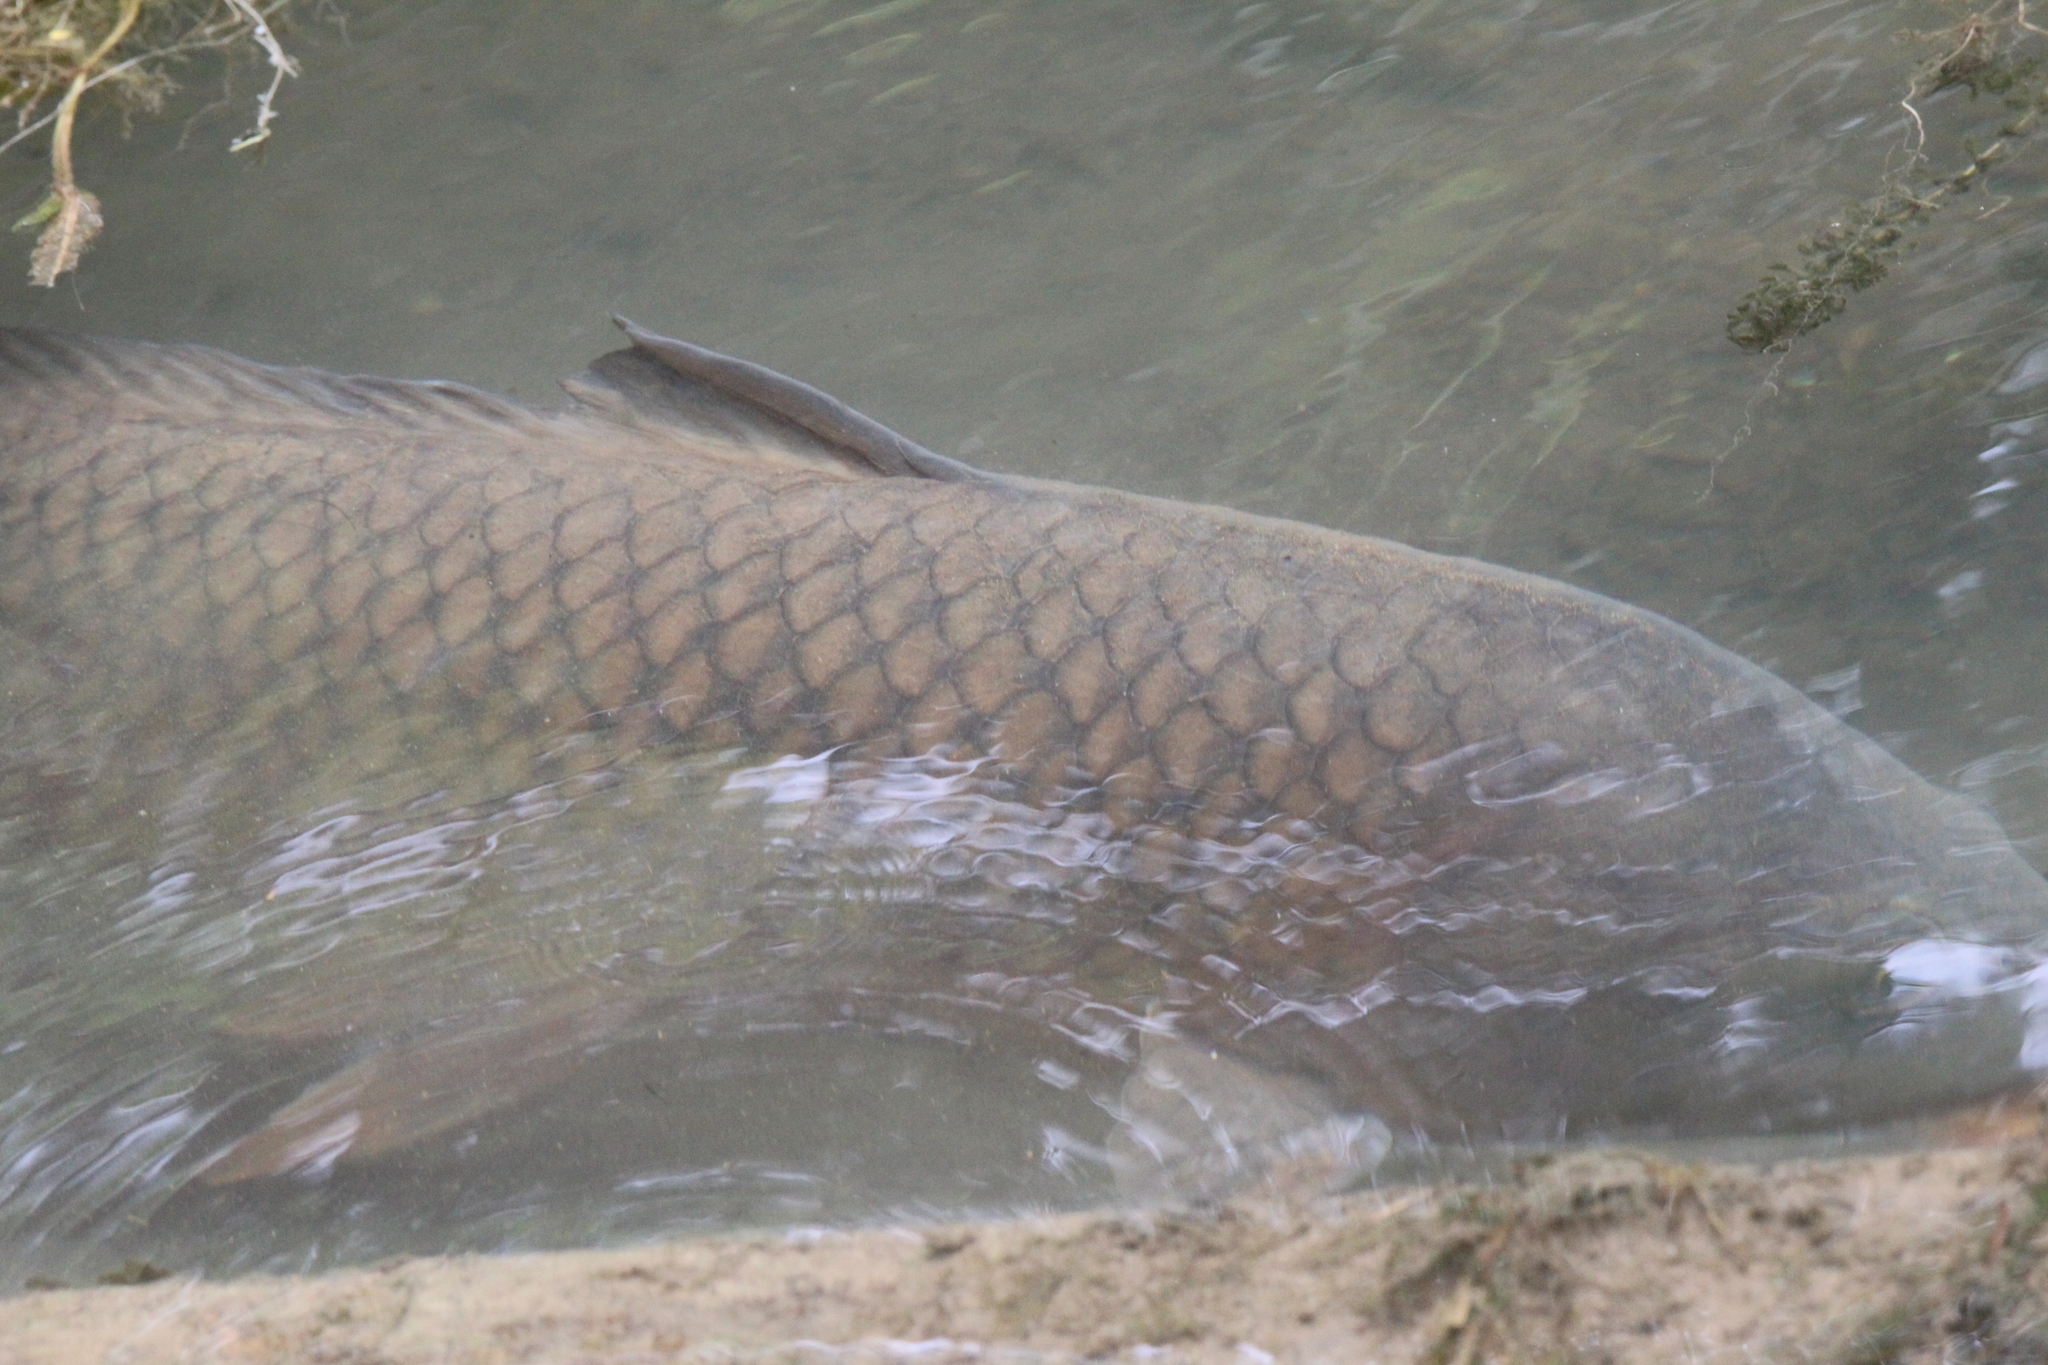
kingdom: Animalia
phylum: Chordata
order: Cypriniformes
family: Cyprinidae
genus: Cyprinus
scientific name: Cyprinus carpio
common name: Common carp
